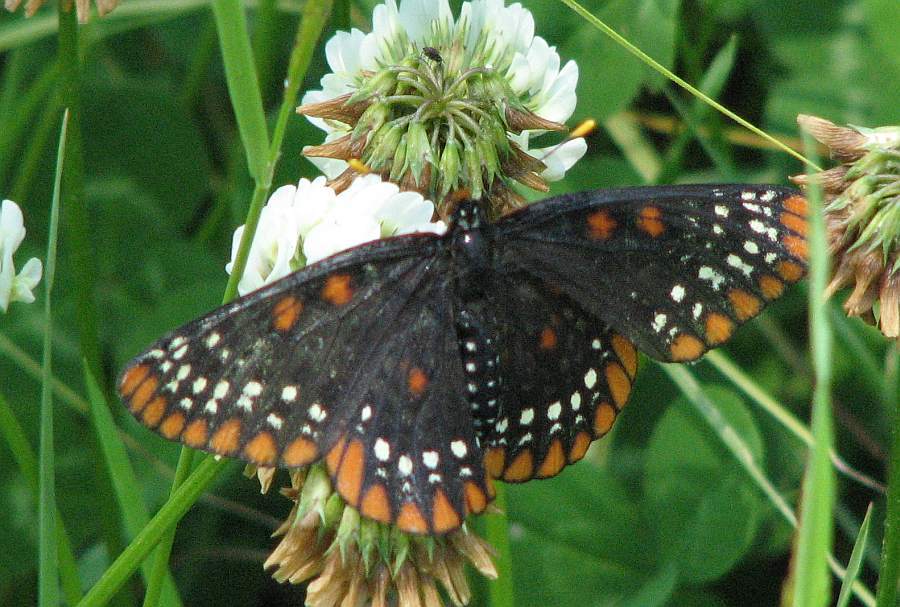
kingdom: Animalia
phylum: Arthropoda
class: Insecta
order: Lepidoptera
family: Nymphalidae
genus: Euphydryas
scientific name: Euphydryas phaeton
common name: Baltimore checkerspot
